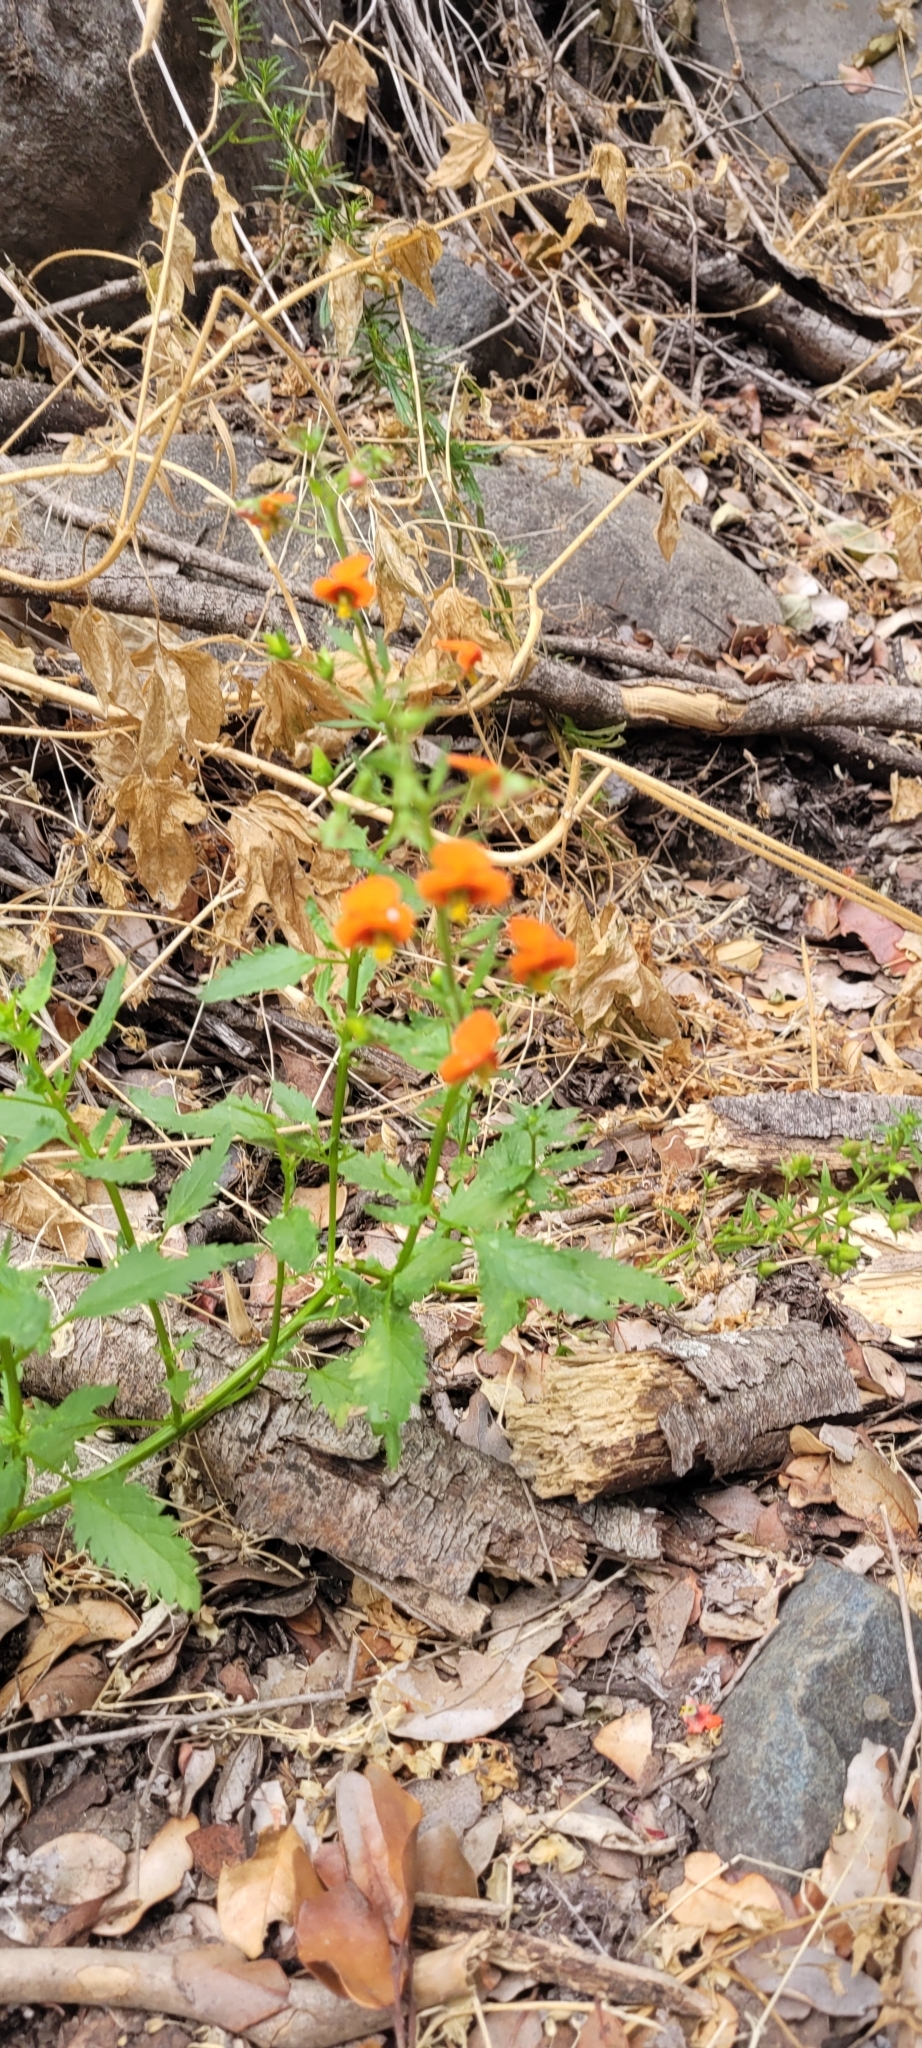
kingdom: Plantae
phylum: Tracheophyta
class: Magnoliopsida
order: Lamiales
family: Scrophulariaceae
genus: Alonsoa
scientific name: Alonsoa meridionalis
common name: Maskflower
